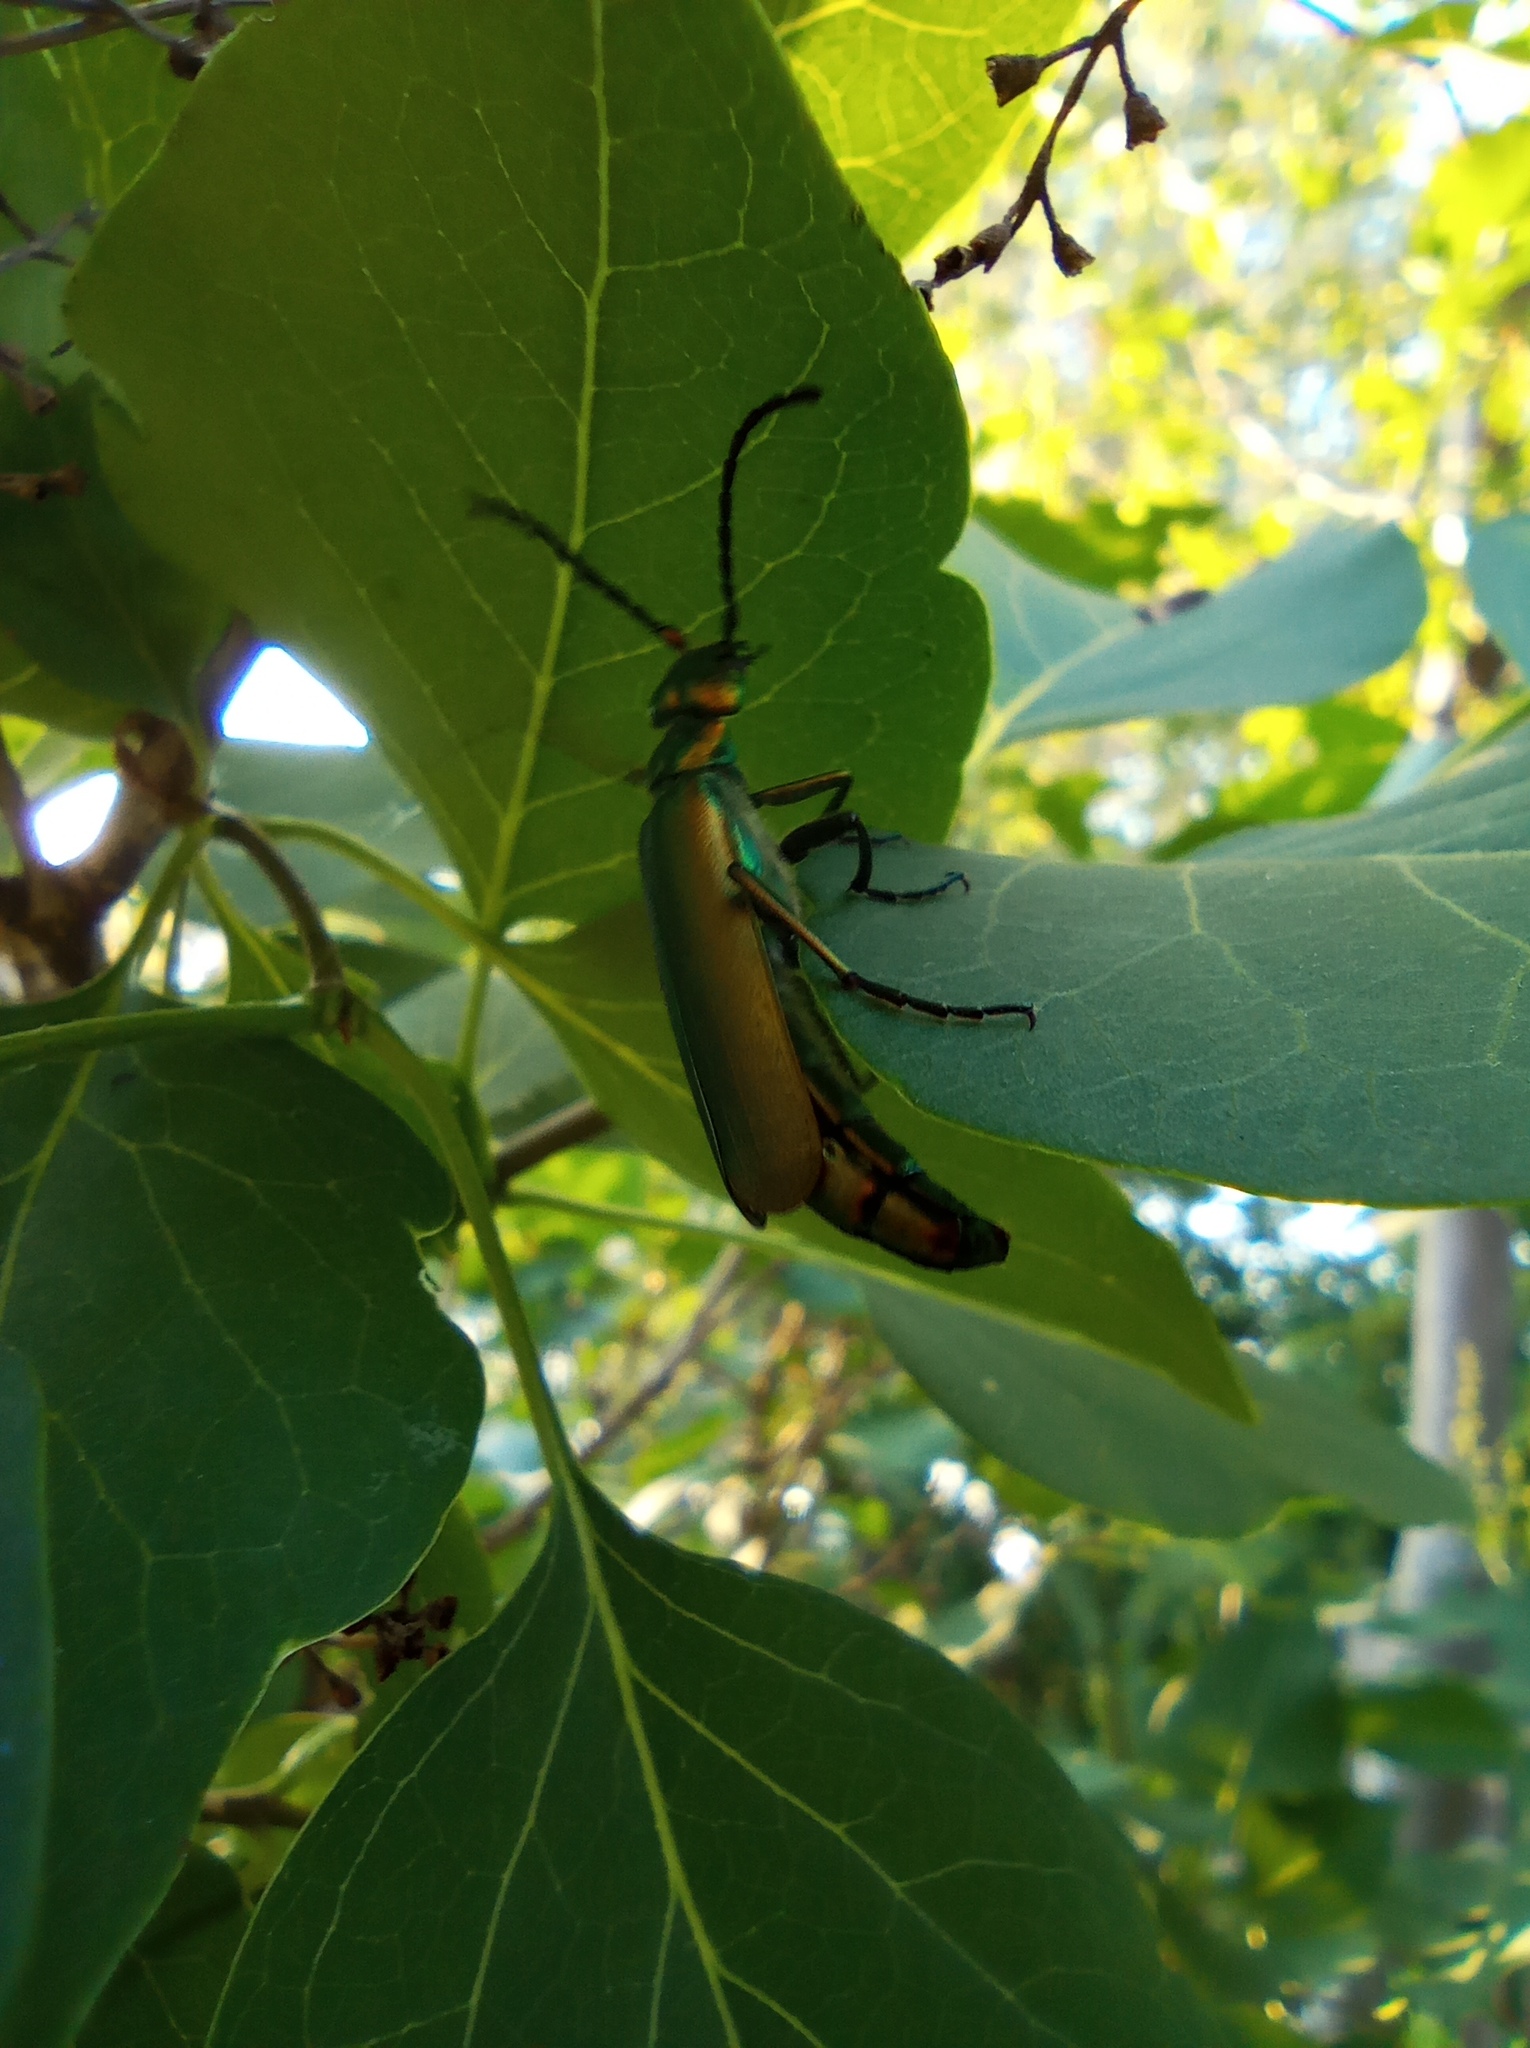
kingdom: Animalia
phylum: Arthropoda
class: Insecta
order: Coleoptera
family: Meloidae
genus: Lytta
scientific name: Lytta vesicatoria
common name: Spanish fly
